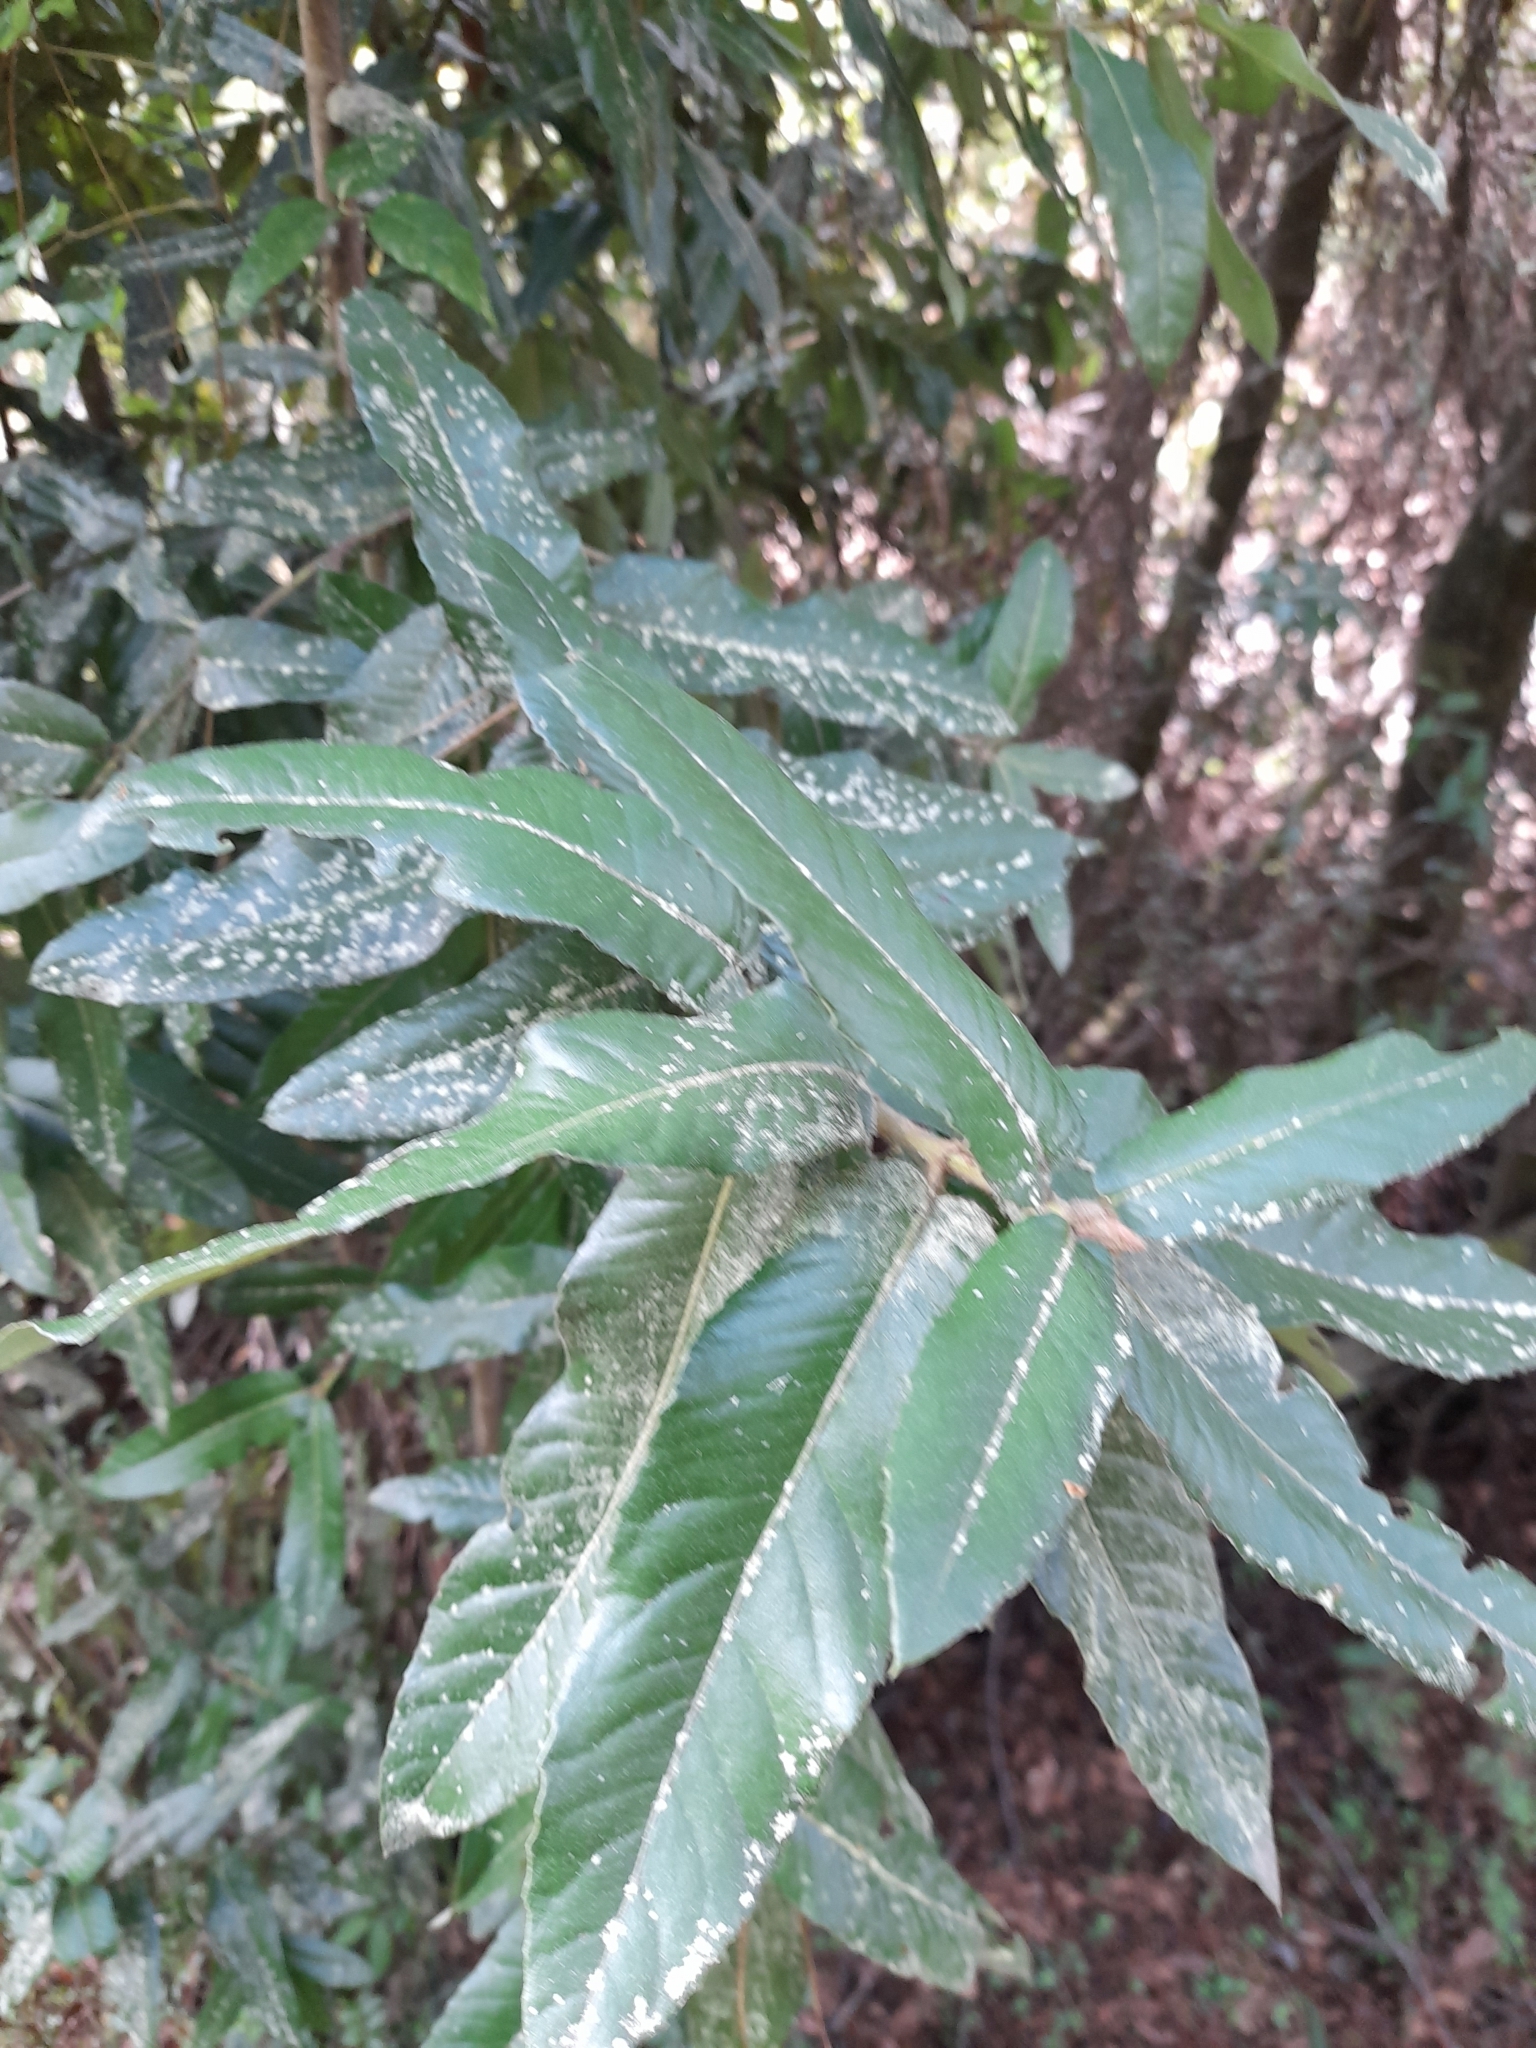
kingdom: Plantae
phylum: Tracheophyta
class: Magnoliopsida
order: Oxalidales
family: Cunoniaceae
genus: Eucryphia
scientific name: Eucryphia cordifolia
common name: Ulmo
